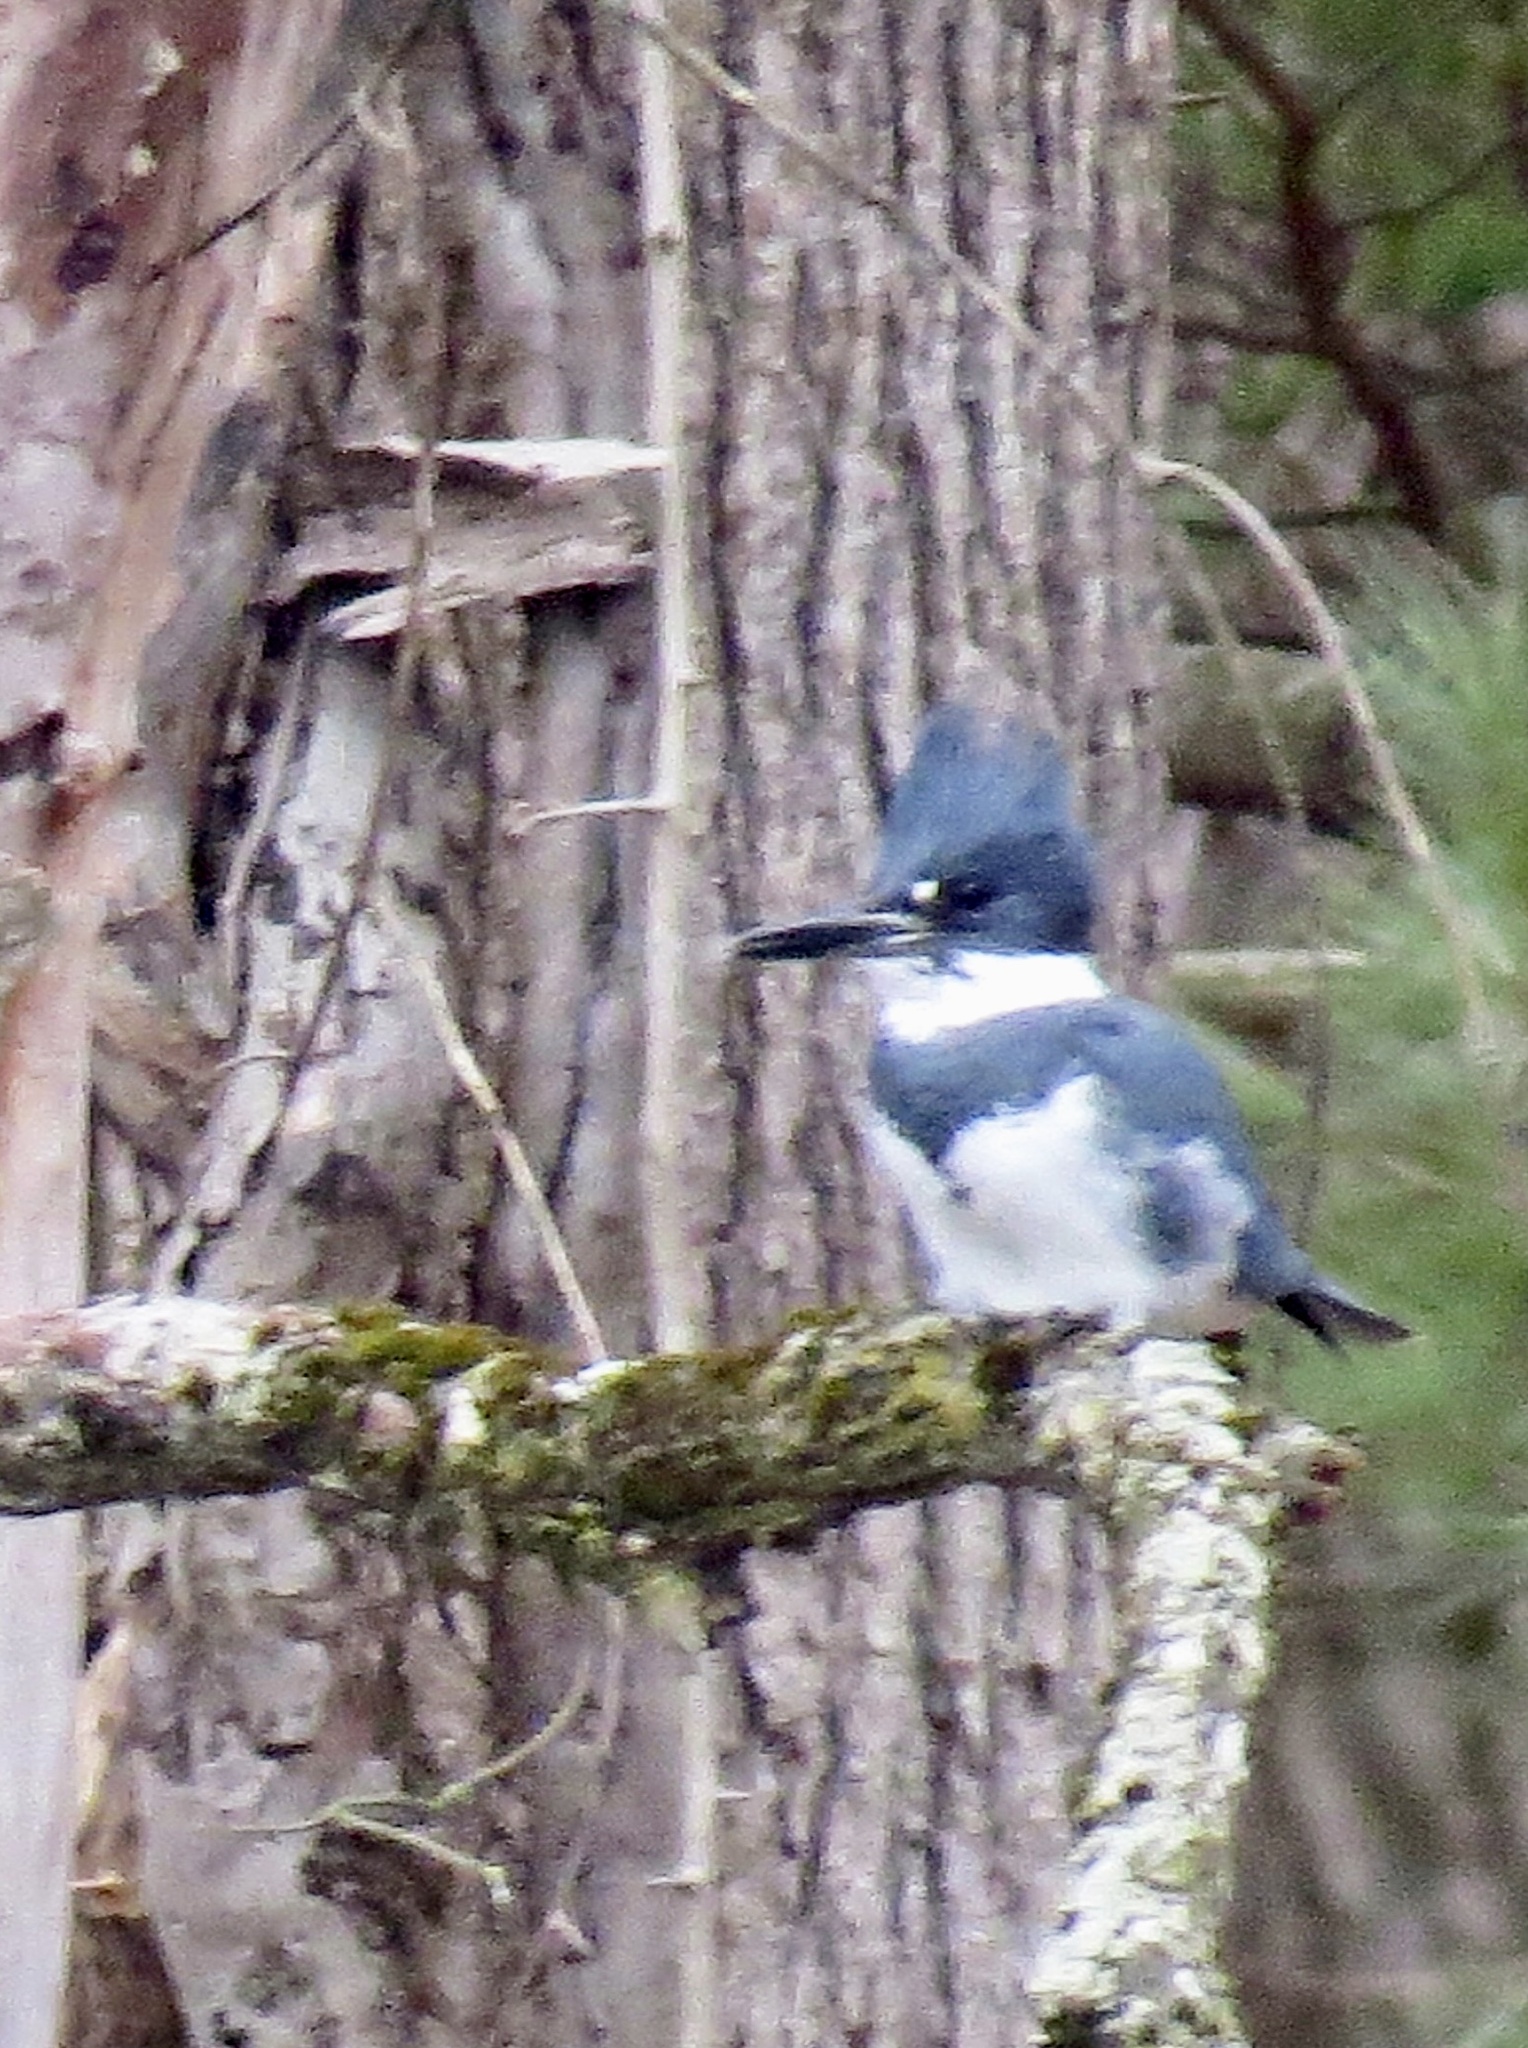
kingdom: Animalia
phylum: Chordata
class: Aves
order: Coraciiformes
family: Alcedinidae
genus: Megaceryle
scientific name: Megaceryle alcyon
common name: Belted kingfisher
